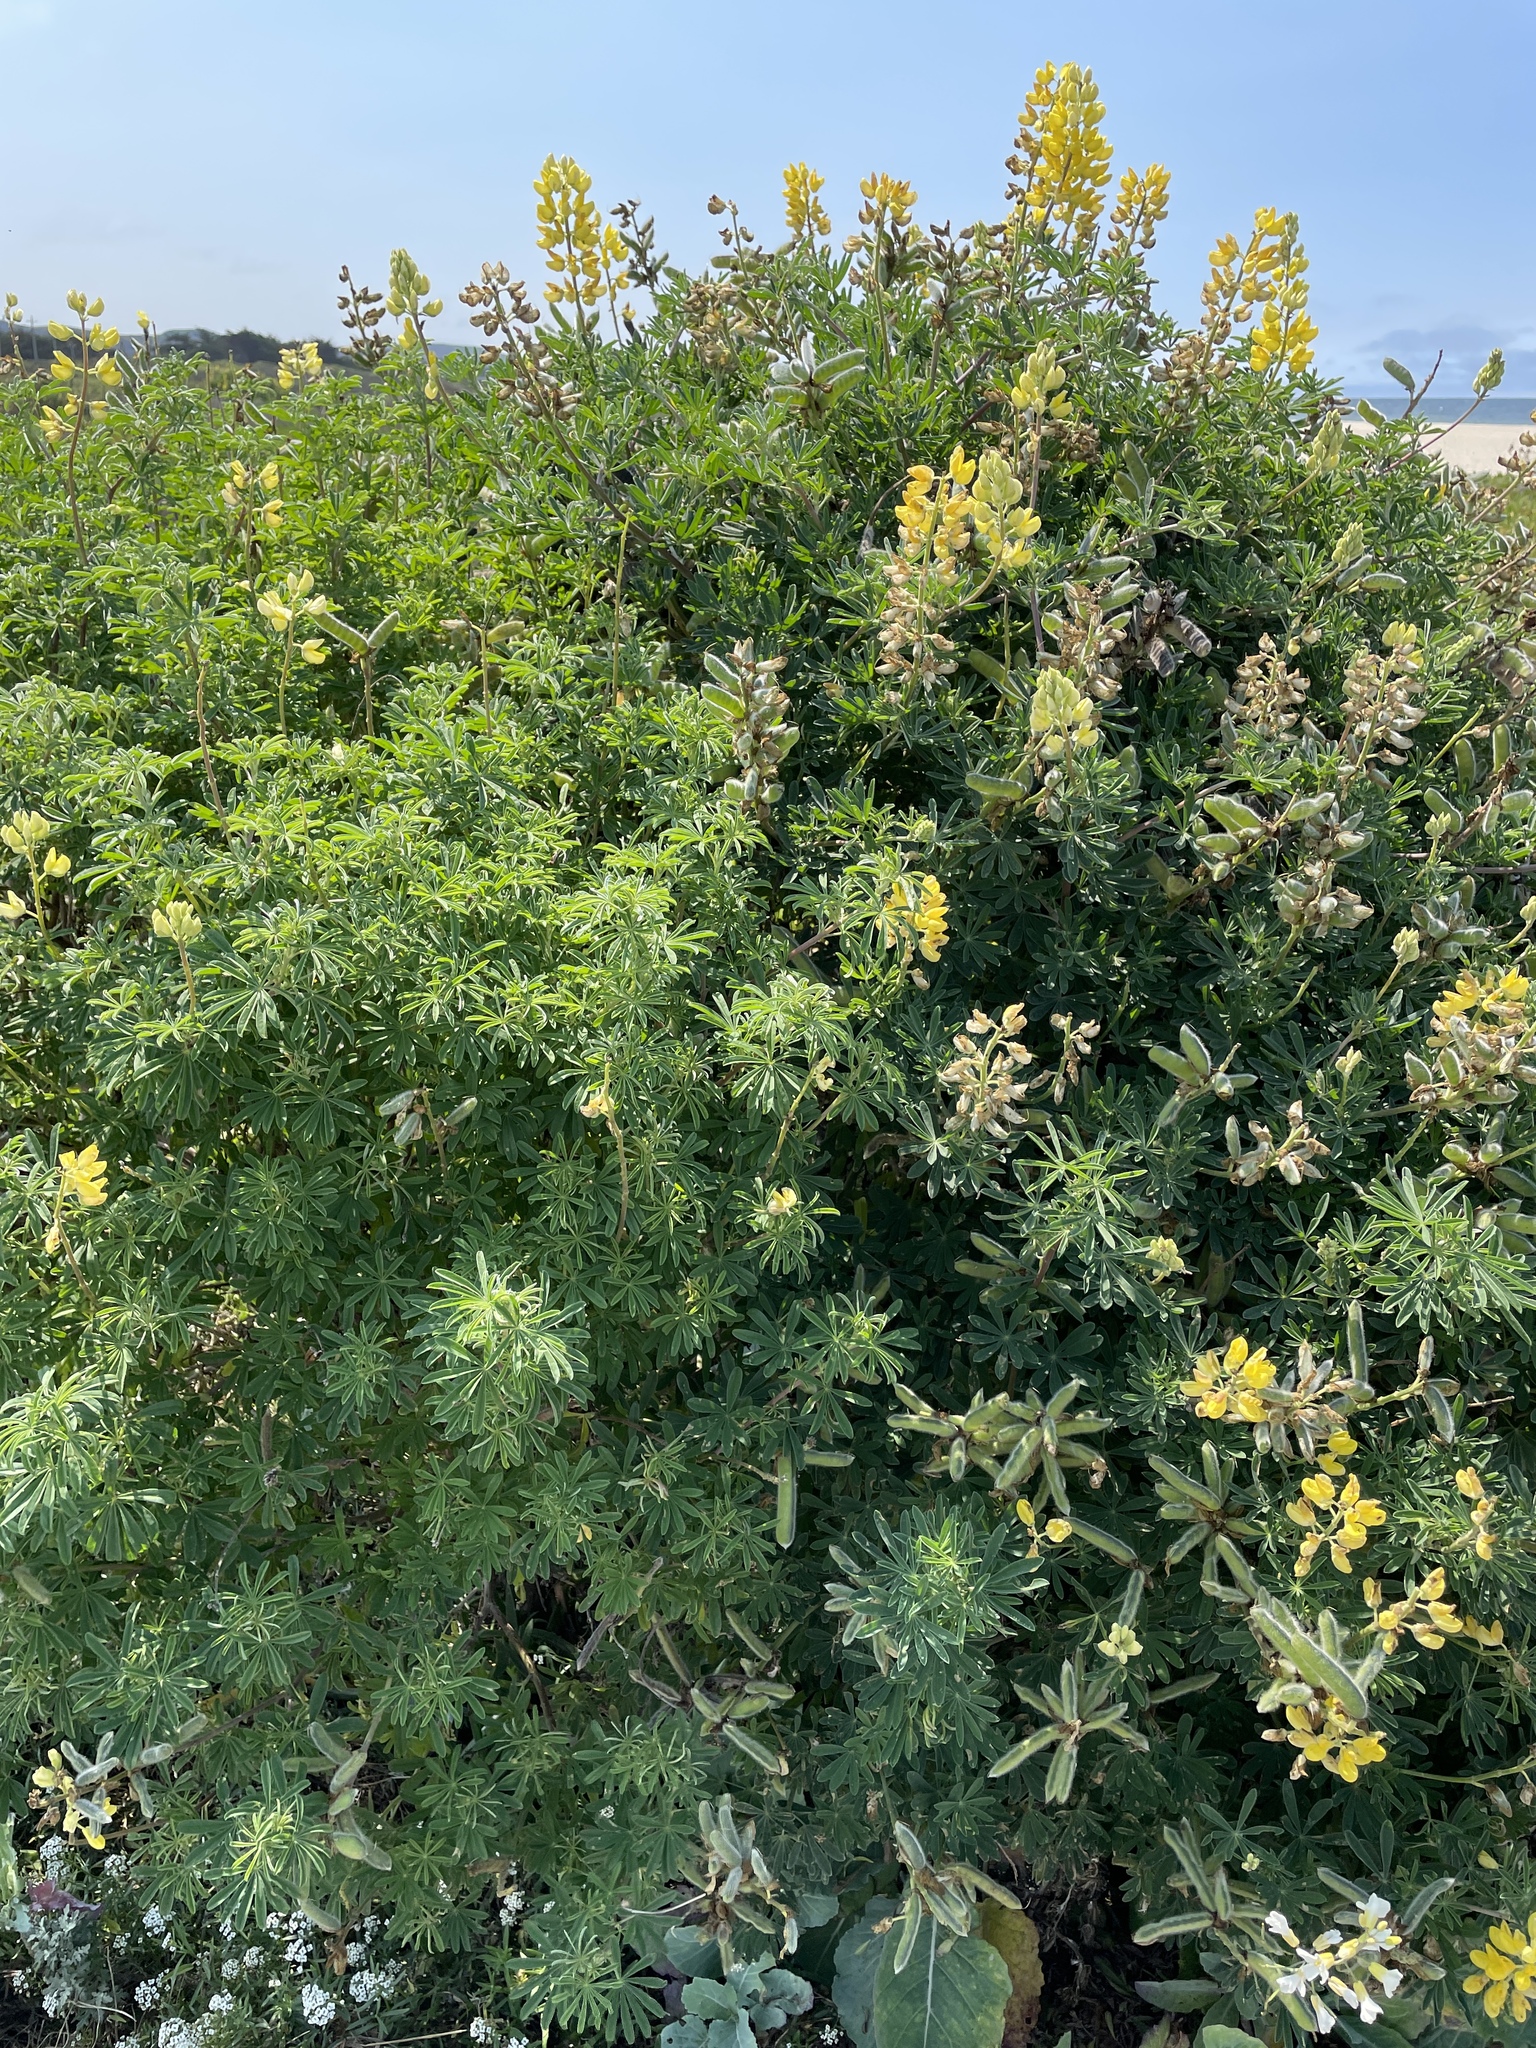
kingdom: Plantae
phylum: Tracheophyta
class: Magnoliopsida
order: Fabales
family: Fabaceae
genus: Lupinus
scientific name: Lupinus arboreus
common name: Yellow bush lupine
